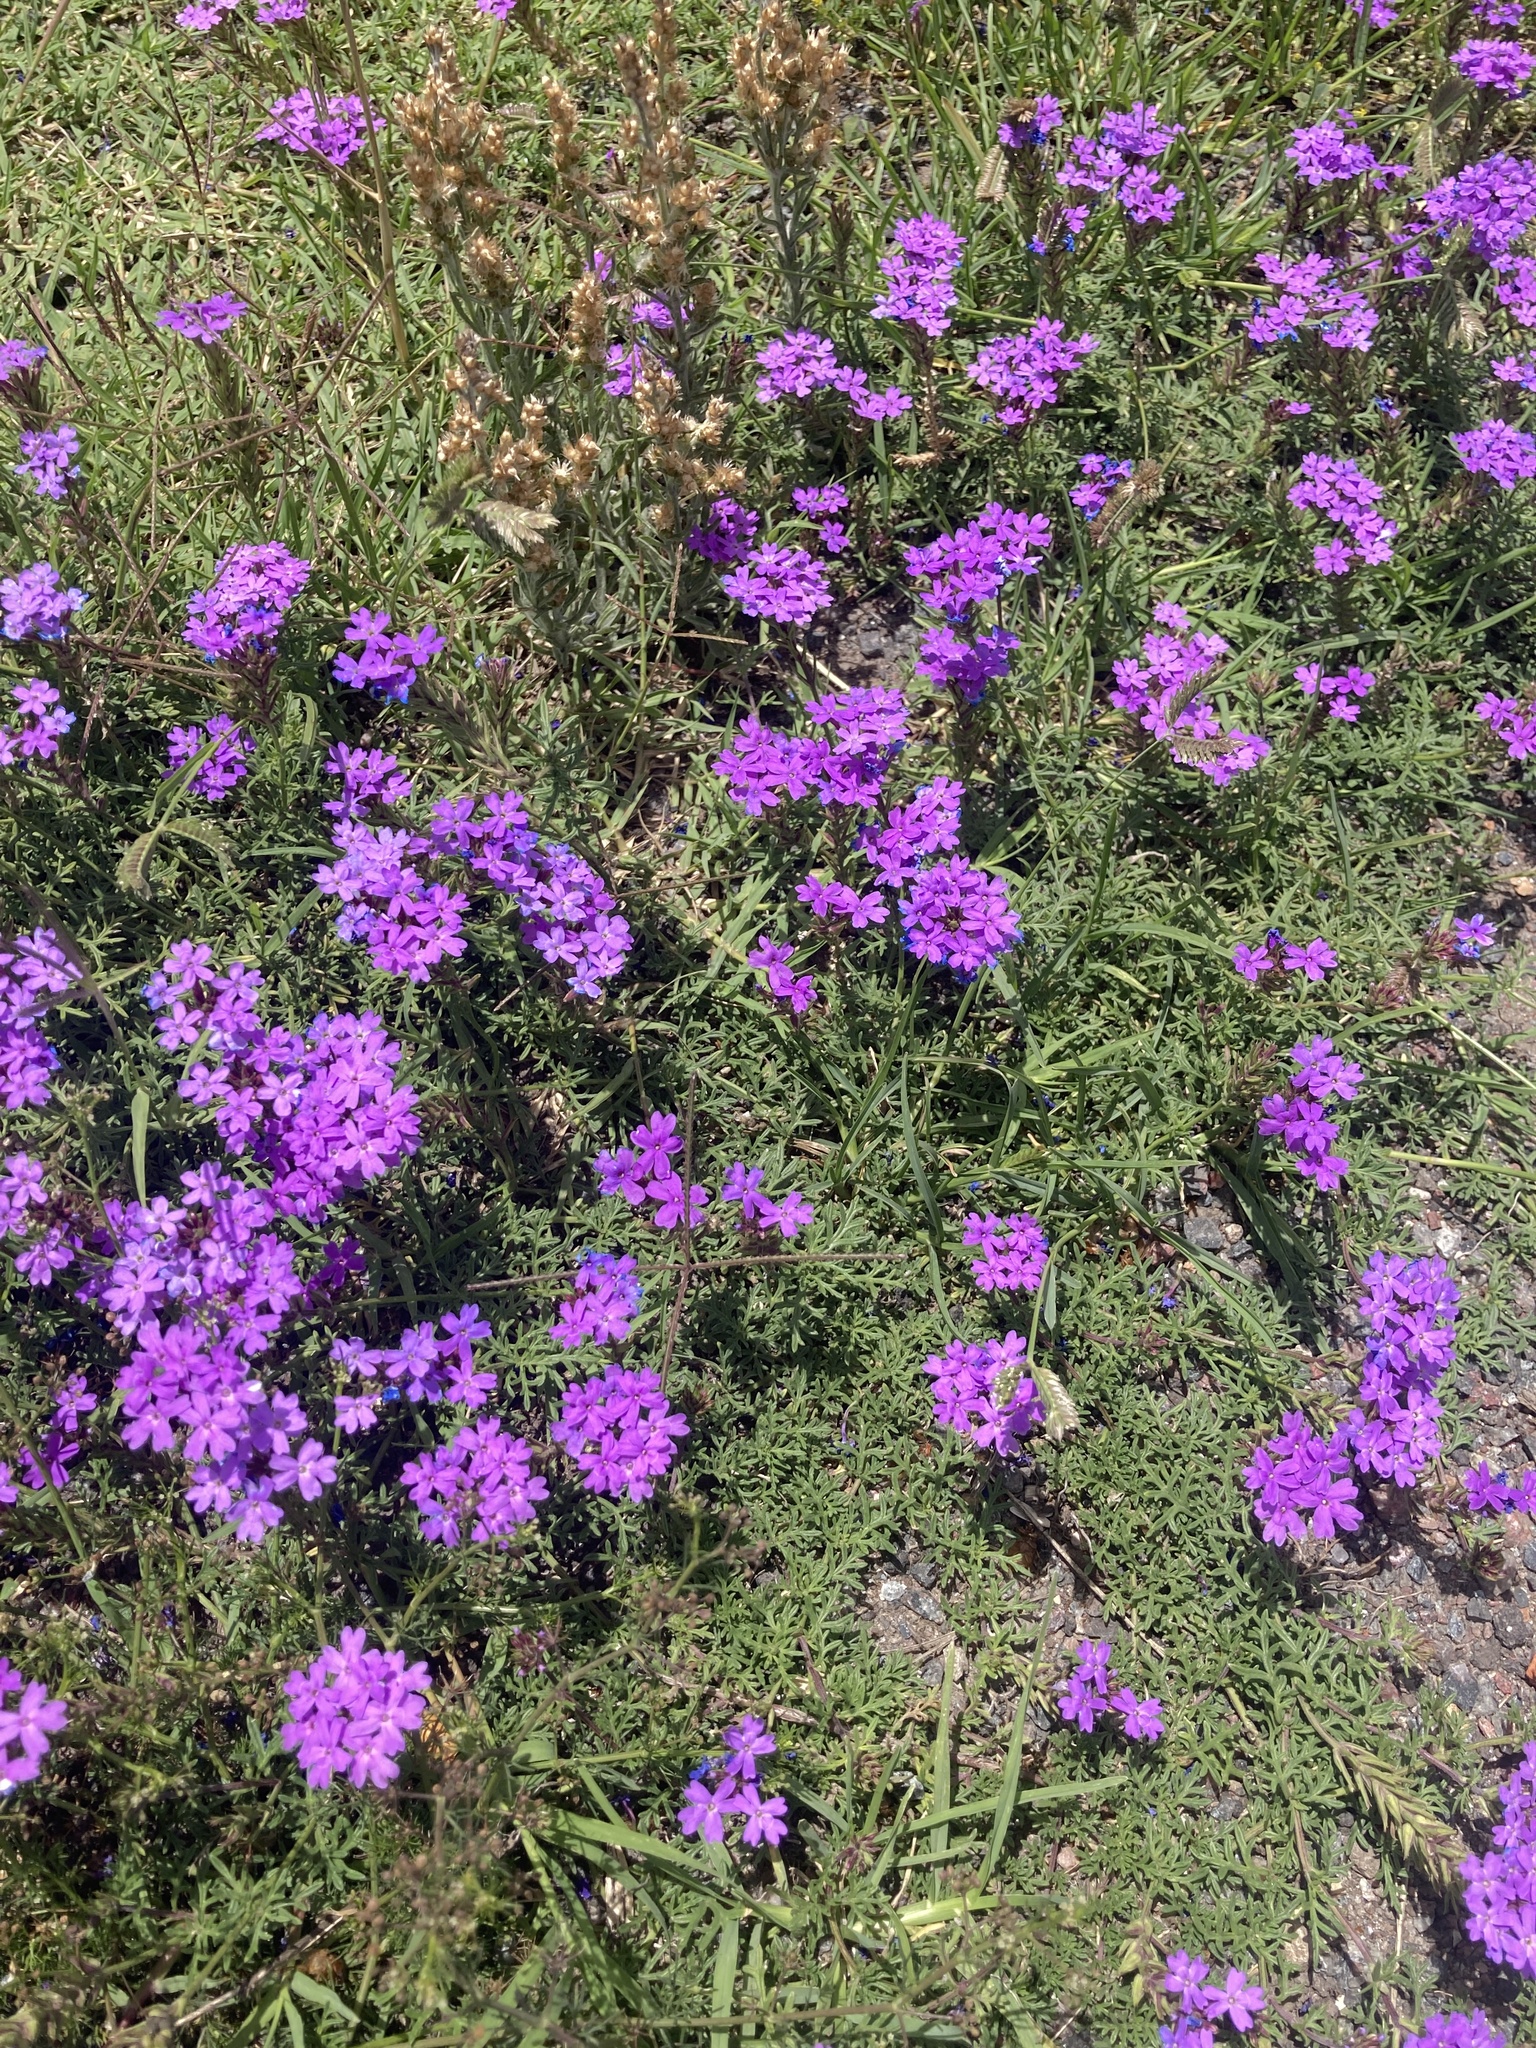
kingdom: Plantae
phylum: Tracheophyta
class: Magnoliopsida
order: Lamiales
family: Verbenaceae
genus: Verbena
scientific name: Verbena tenera
